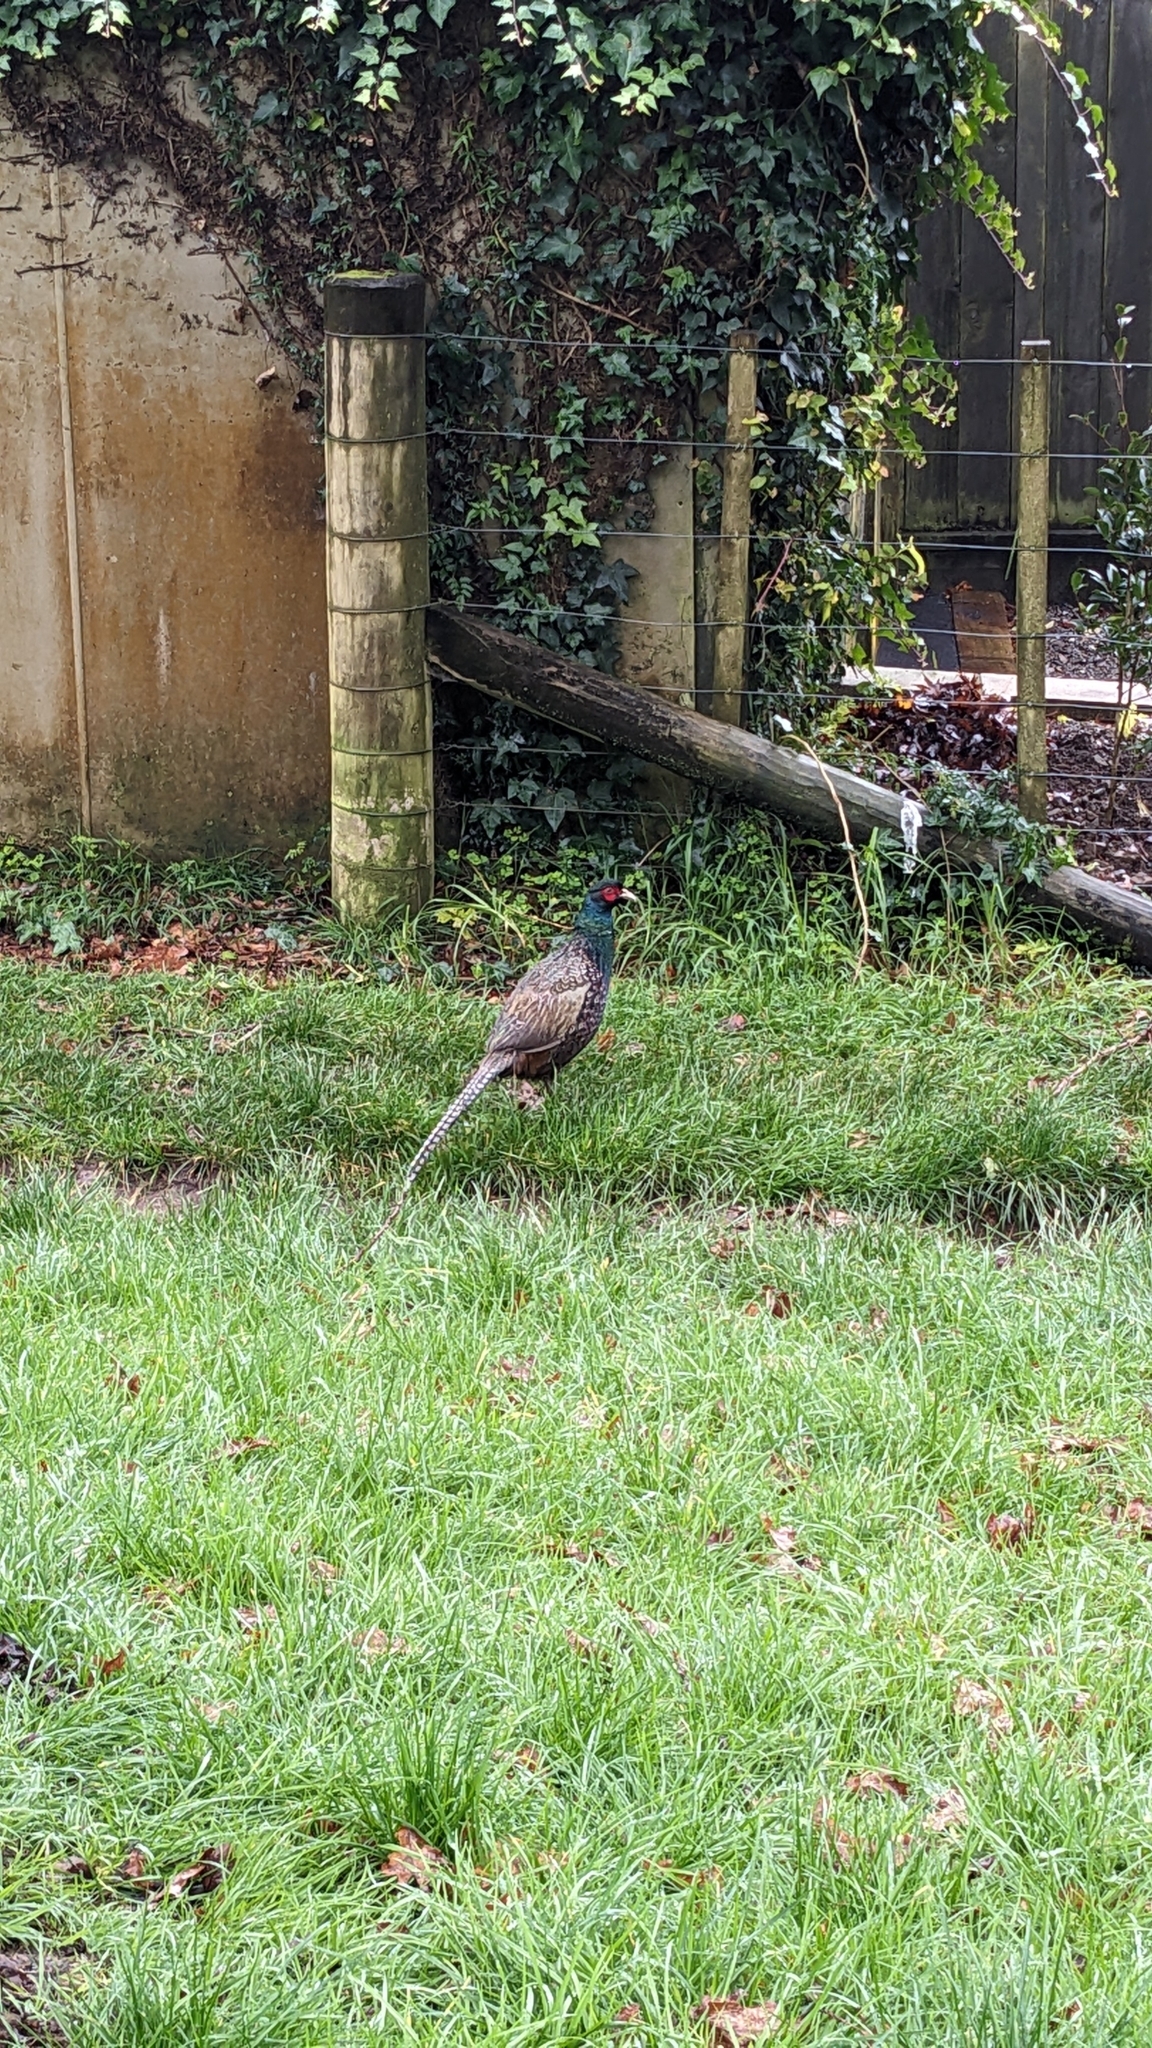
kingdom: Animalia
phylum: Chordata
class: Aves
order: Galliformes
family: Phasianidae
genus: Phasianus
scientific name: Phasianus colchicus
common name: Common pheasant
